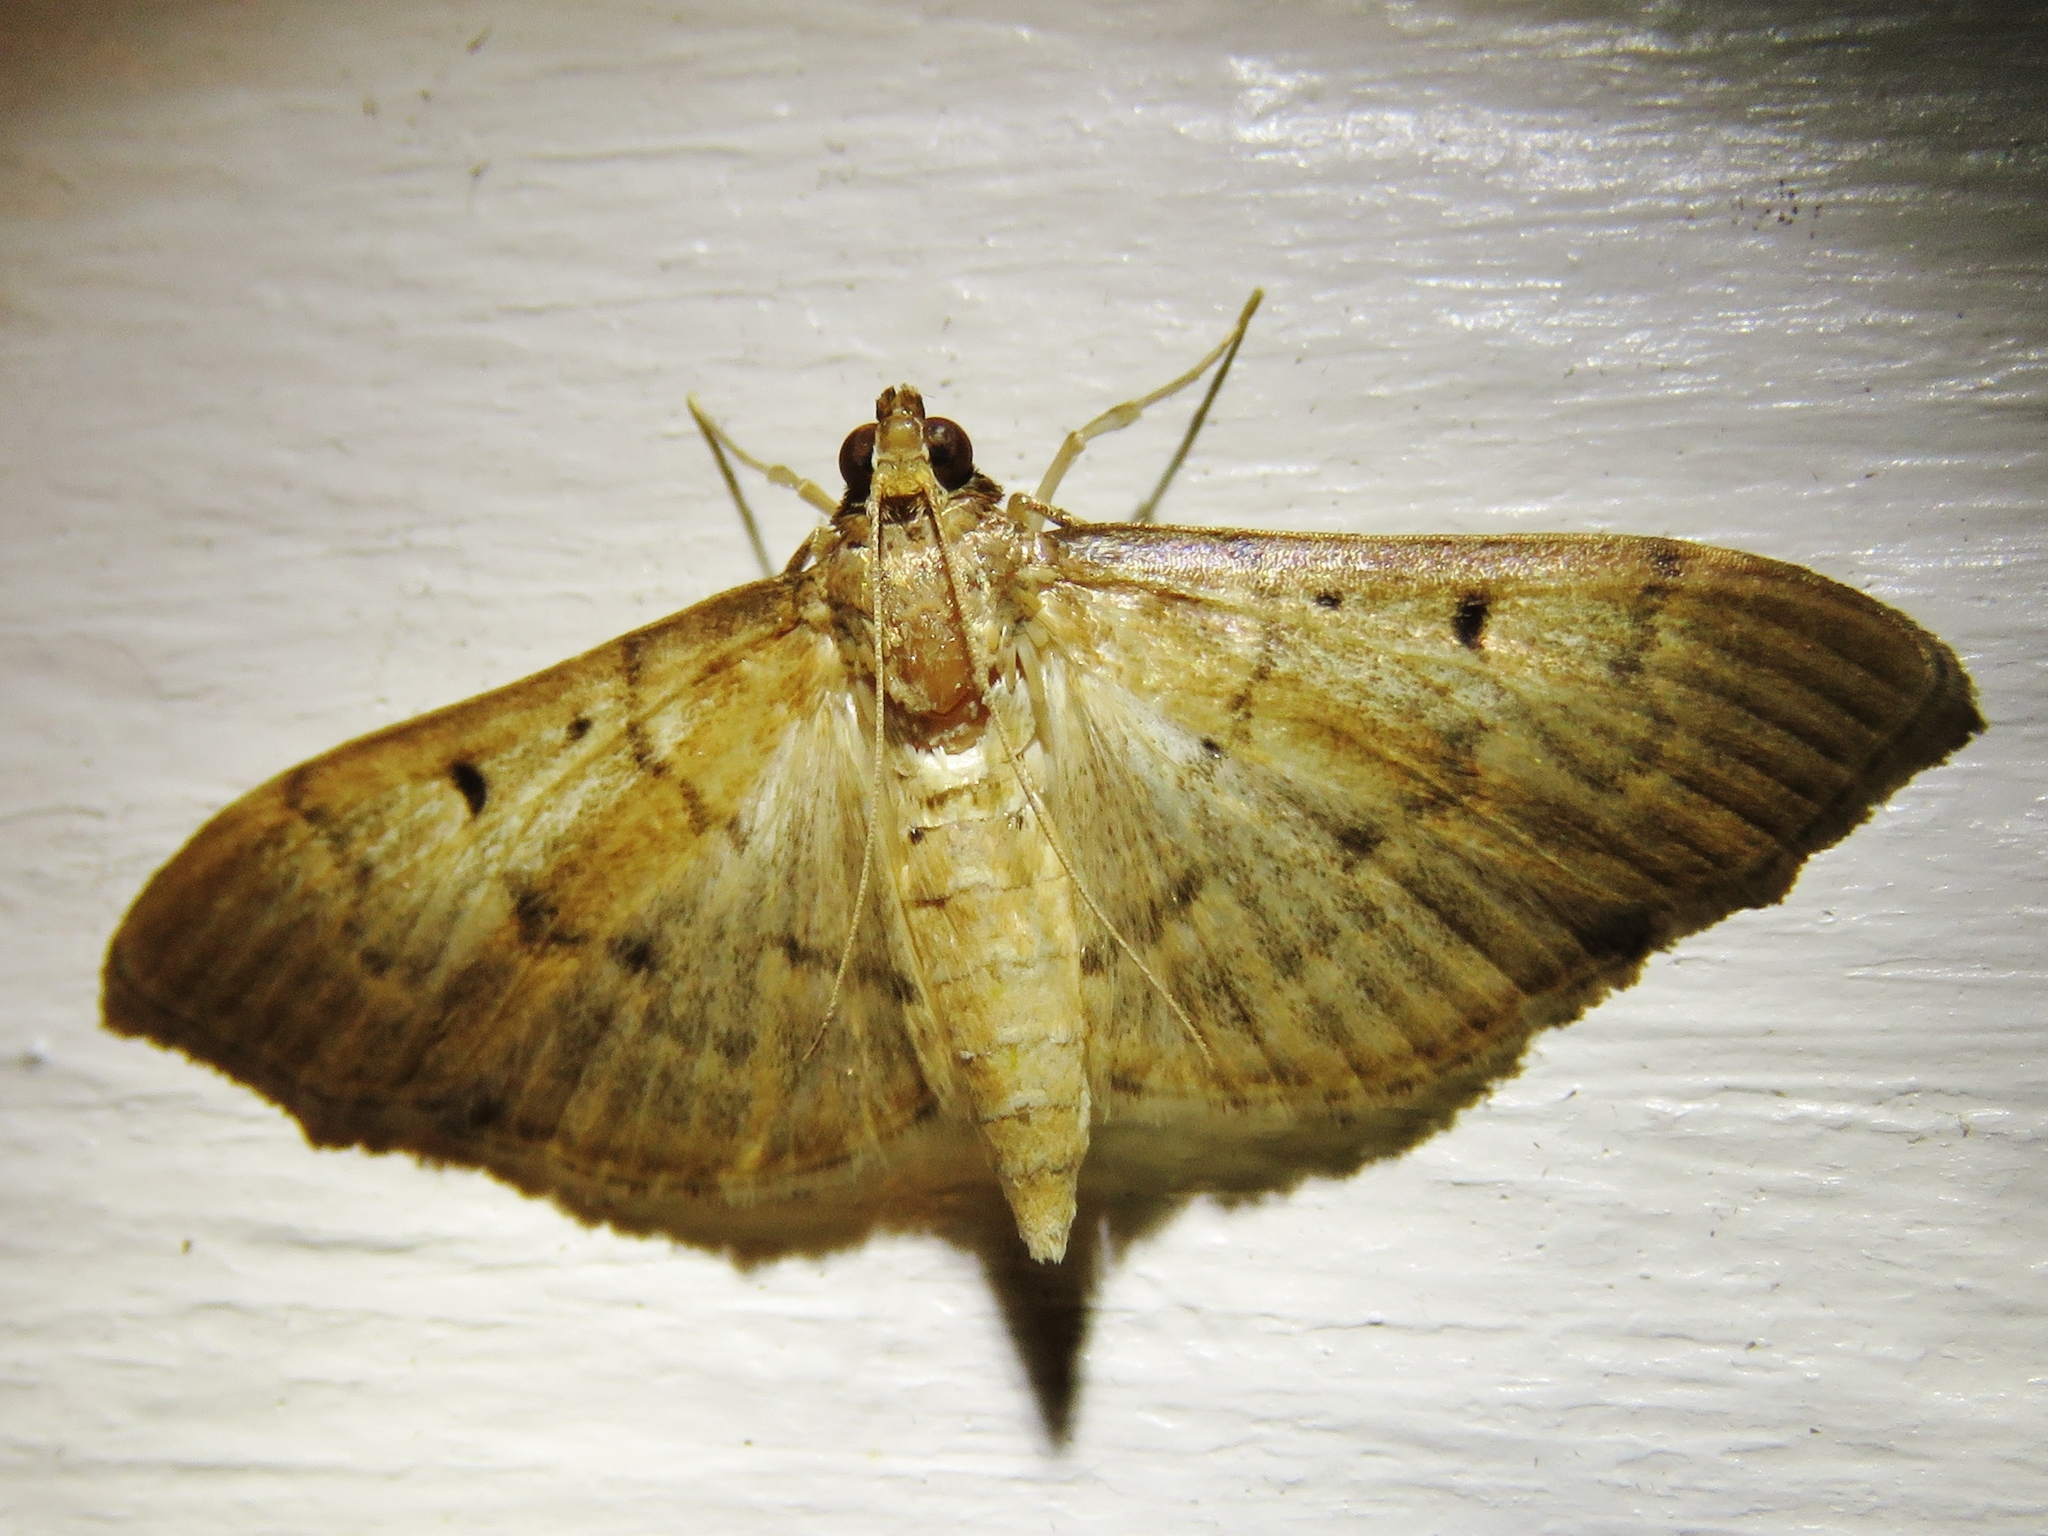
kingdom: Animalia
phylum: Arthropoda
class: Insecta
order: Lepidoptera
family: Crambidae
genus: Herpetogramma
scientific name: Herpetogramma bipunctalis
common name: Southern beet webworm
